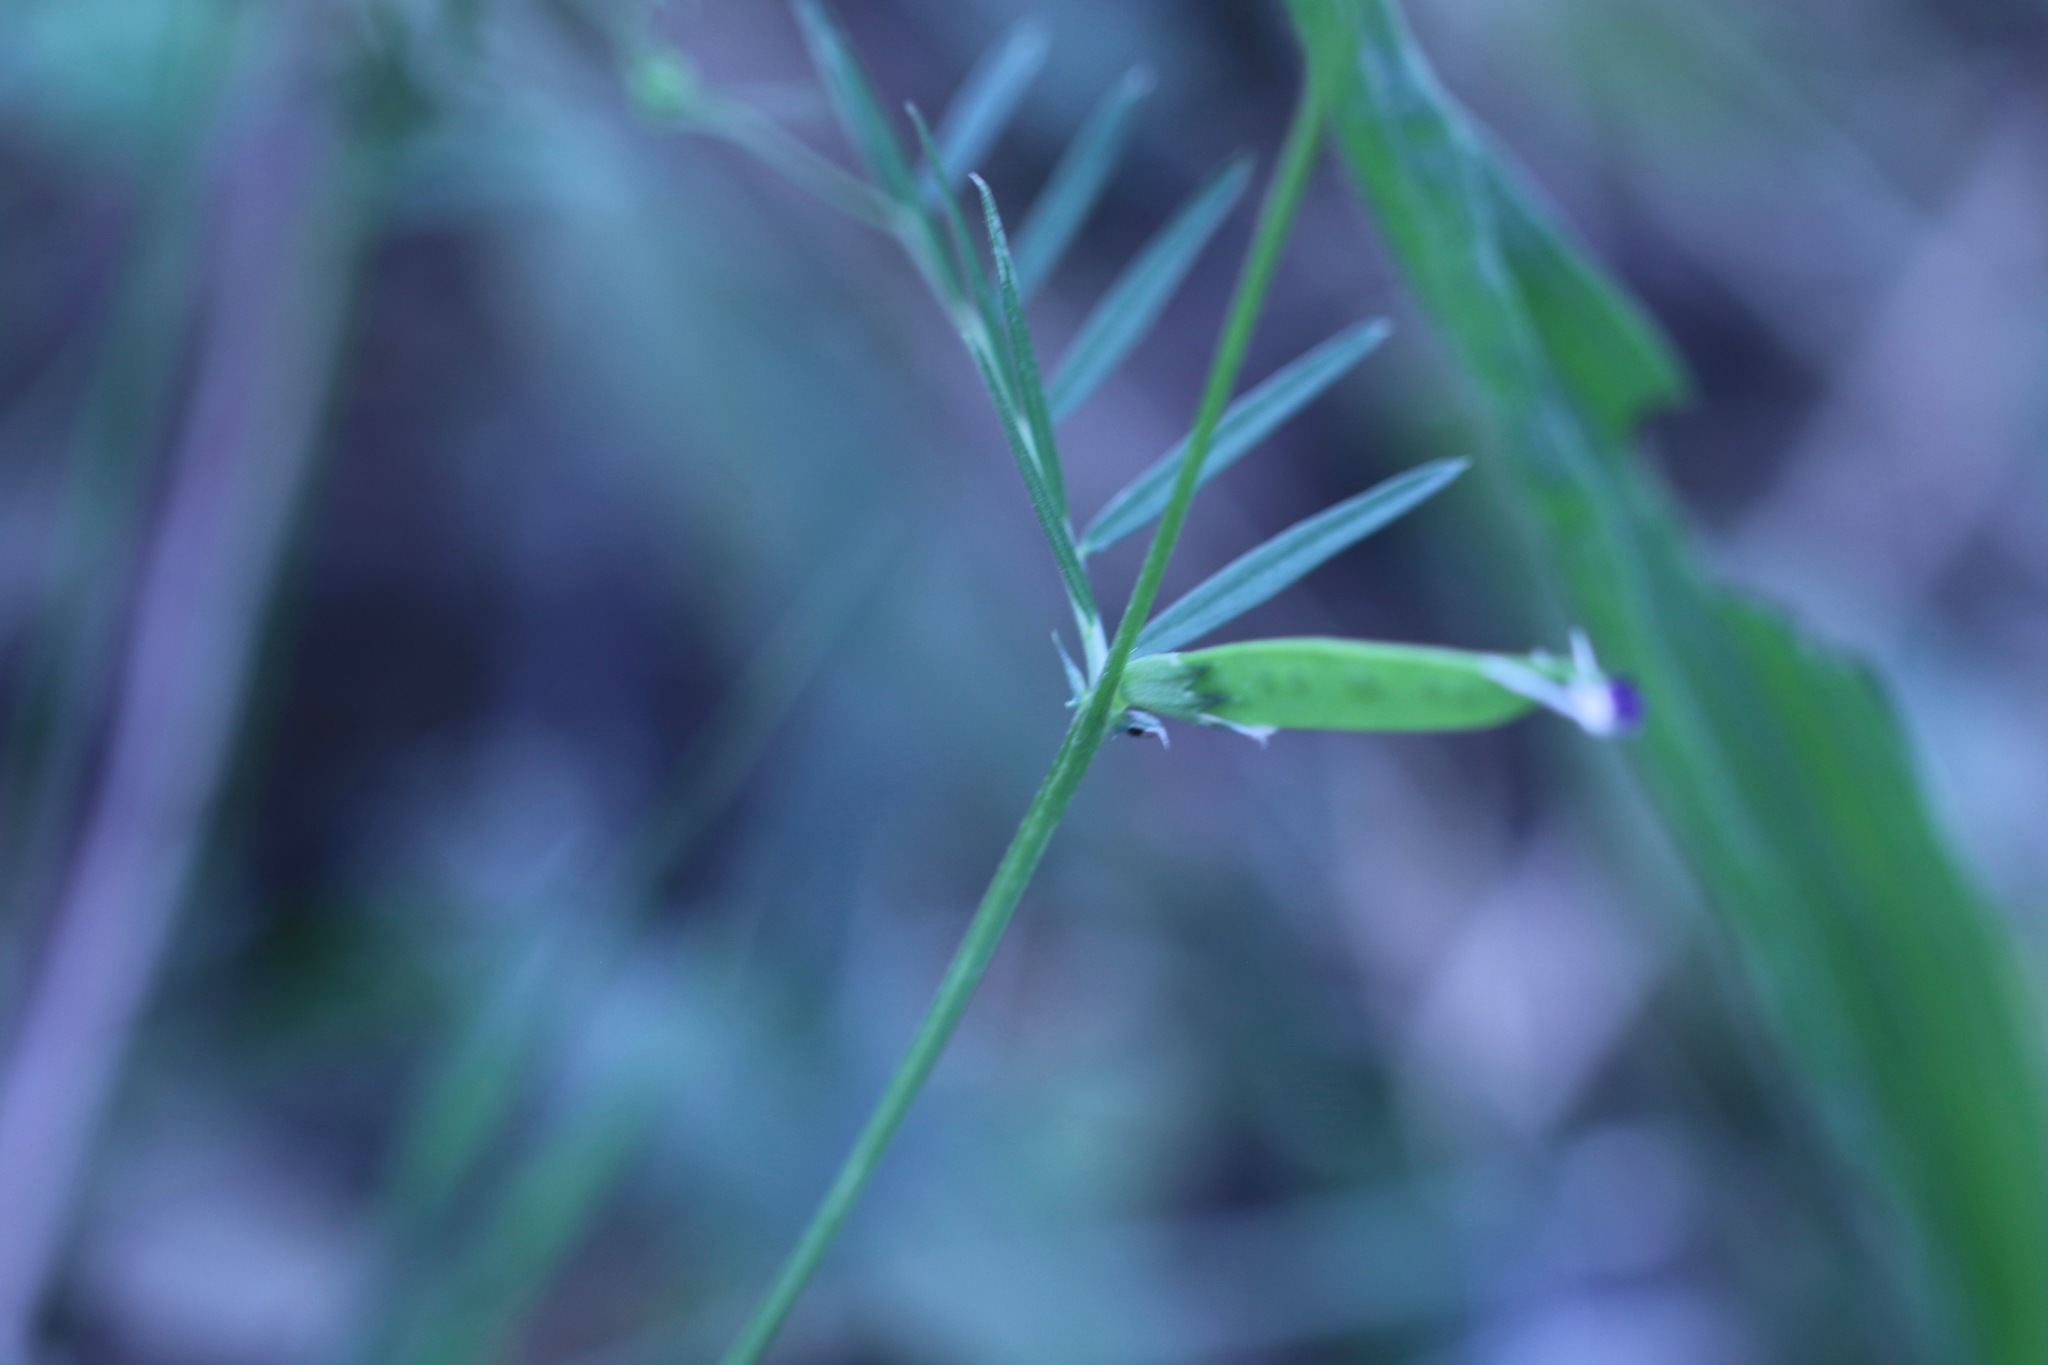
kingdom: Plantae
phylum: Tracheophyta
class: Magnoliopsida
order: Fabales
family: Fabaceae
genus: Vicia
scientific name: Vicia sativa
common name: Garden vetch
